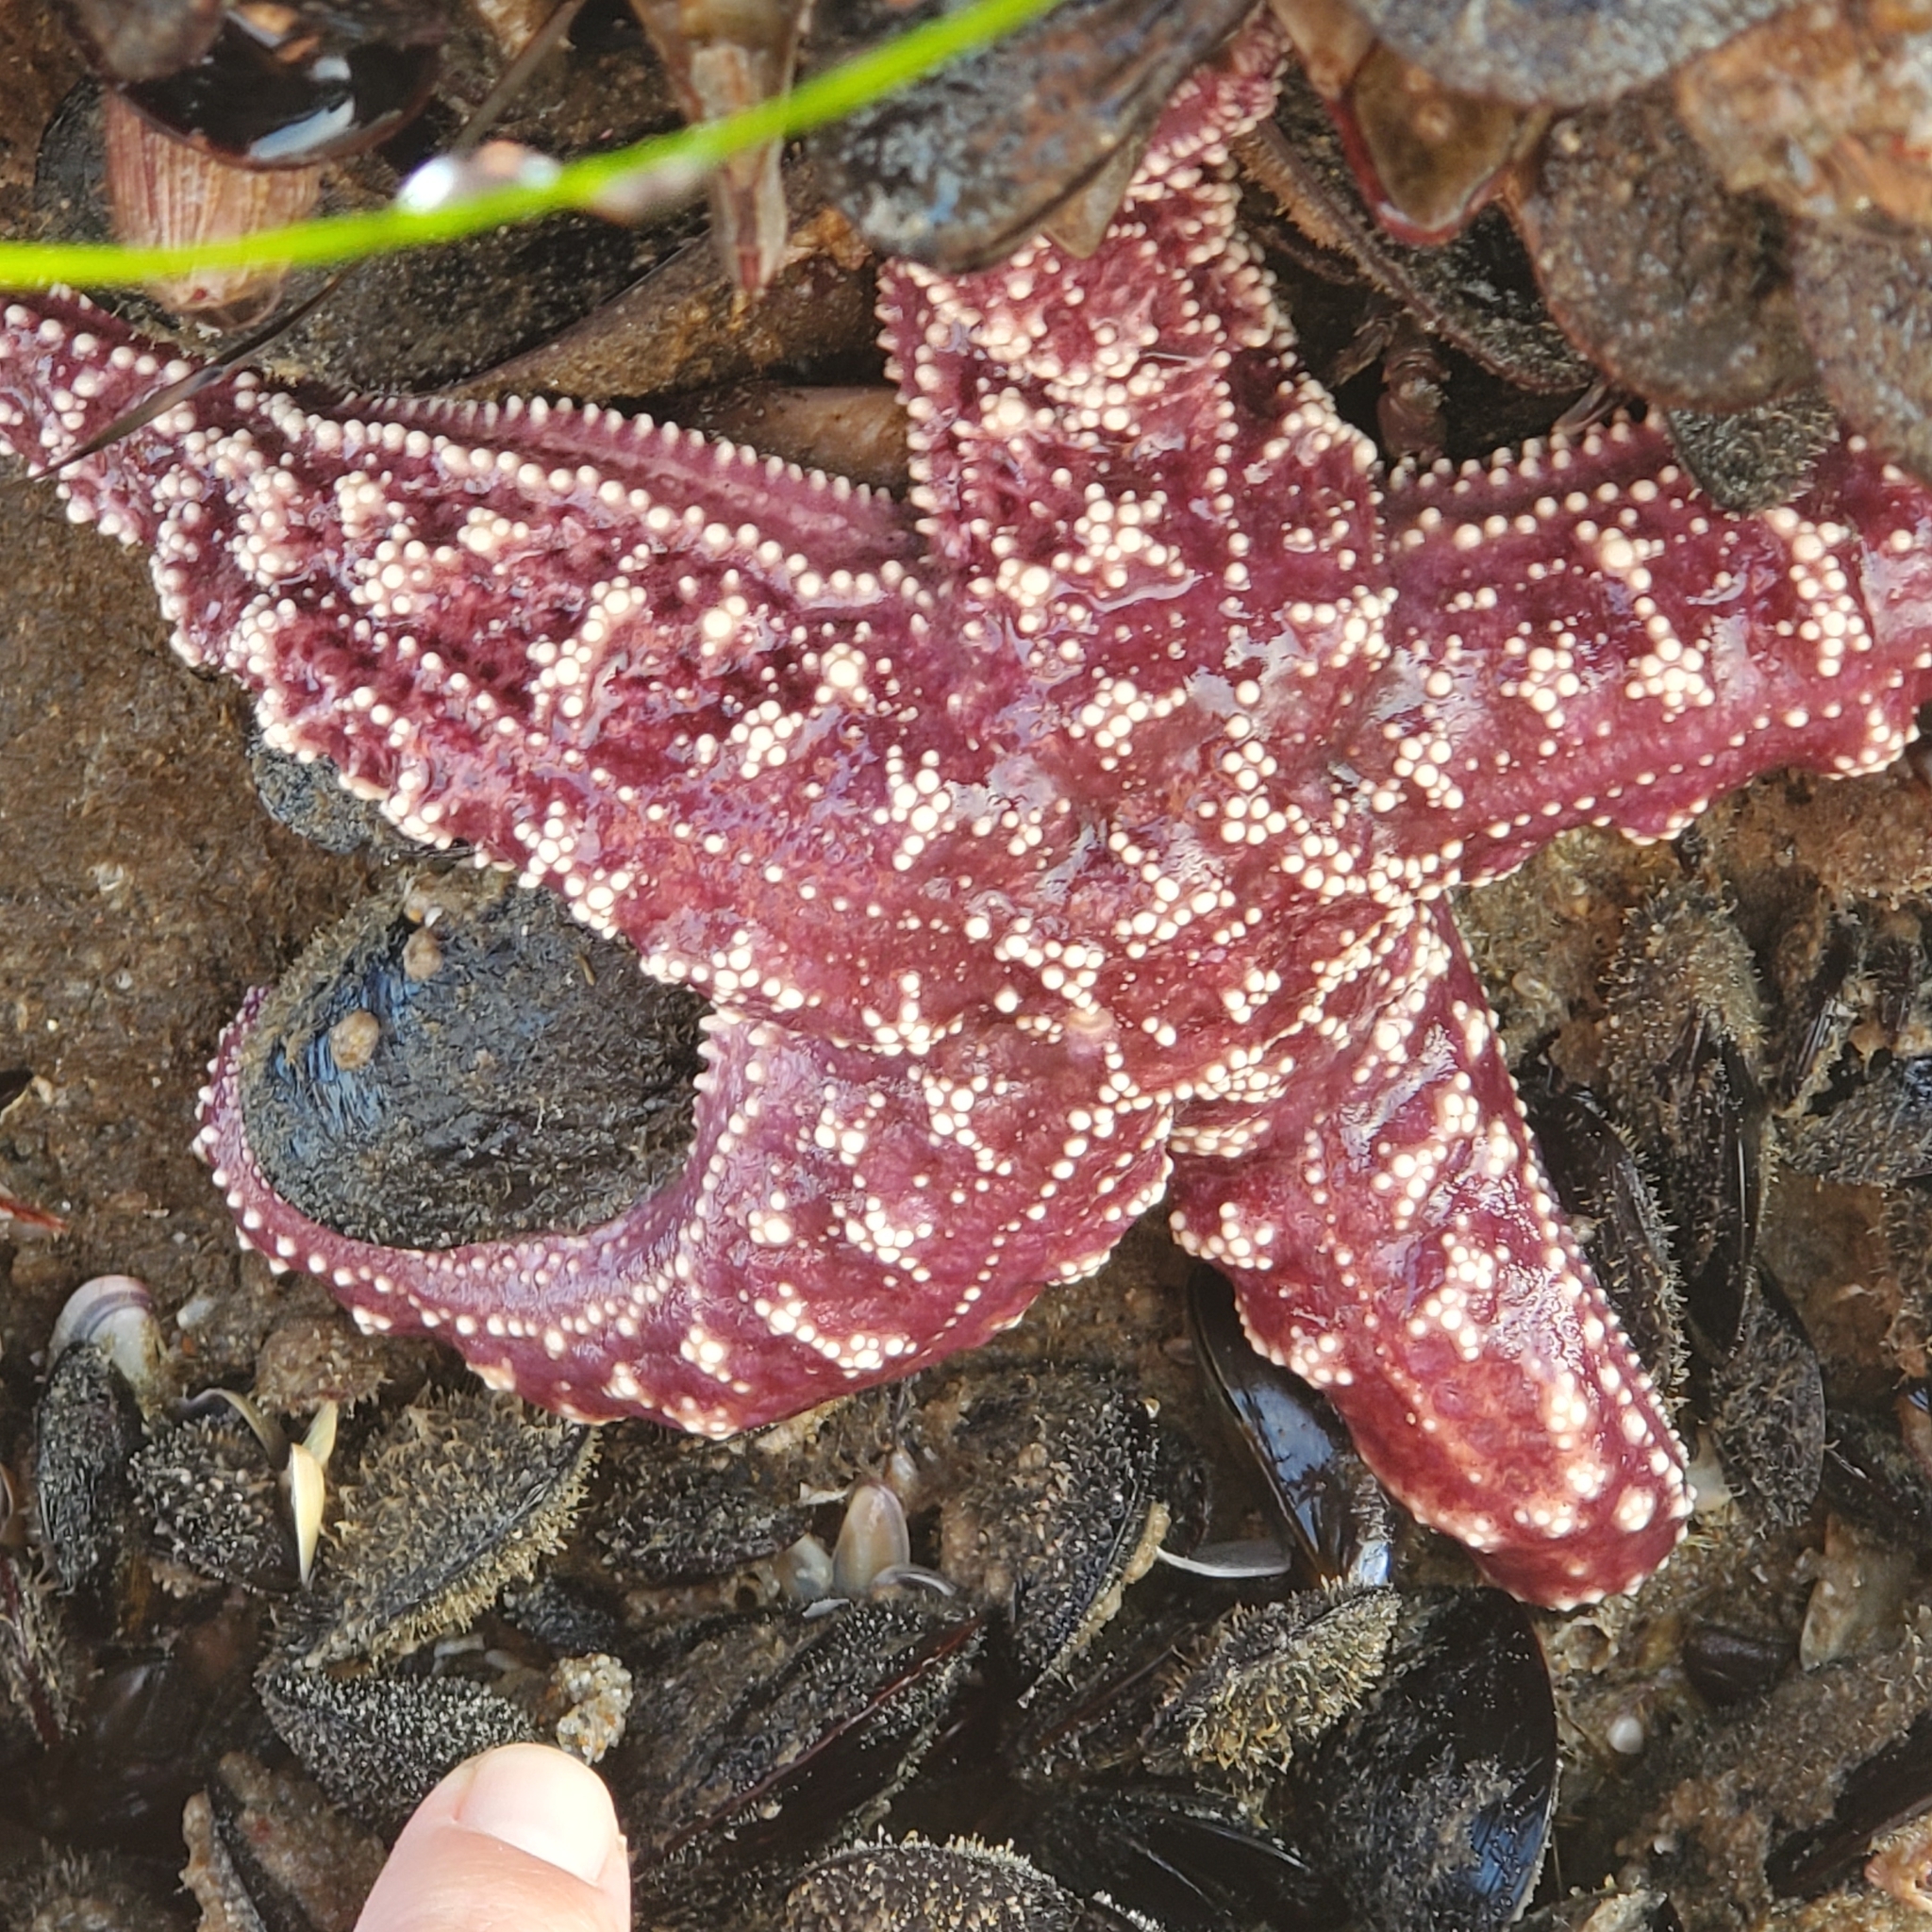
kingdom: Animalia
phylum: Echinodermata
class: Asteroidea
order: Forcipulatida
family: Asteriidae
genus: Pisaster
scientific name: Pisaster ochraceus
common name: Ochre stars
